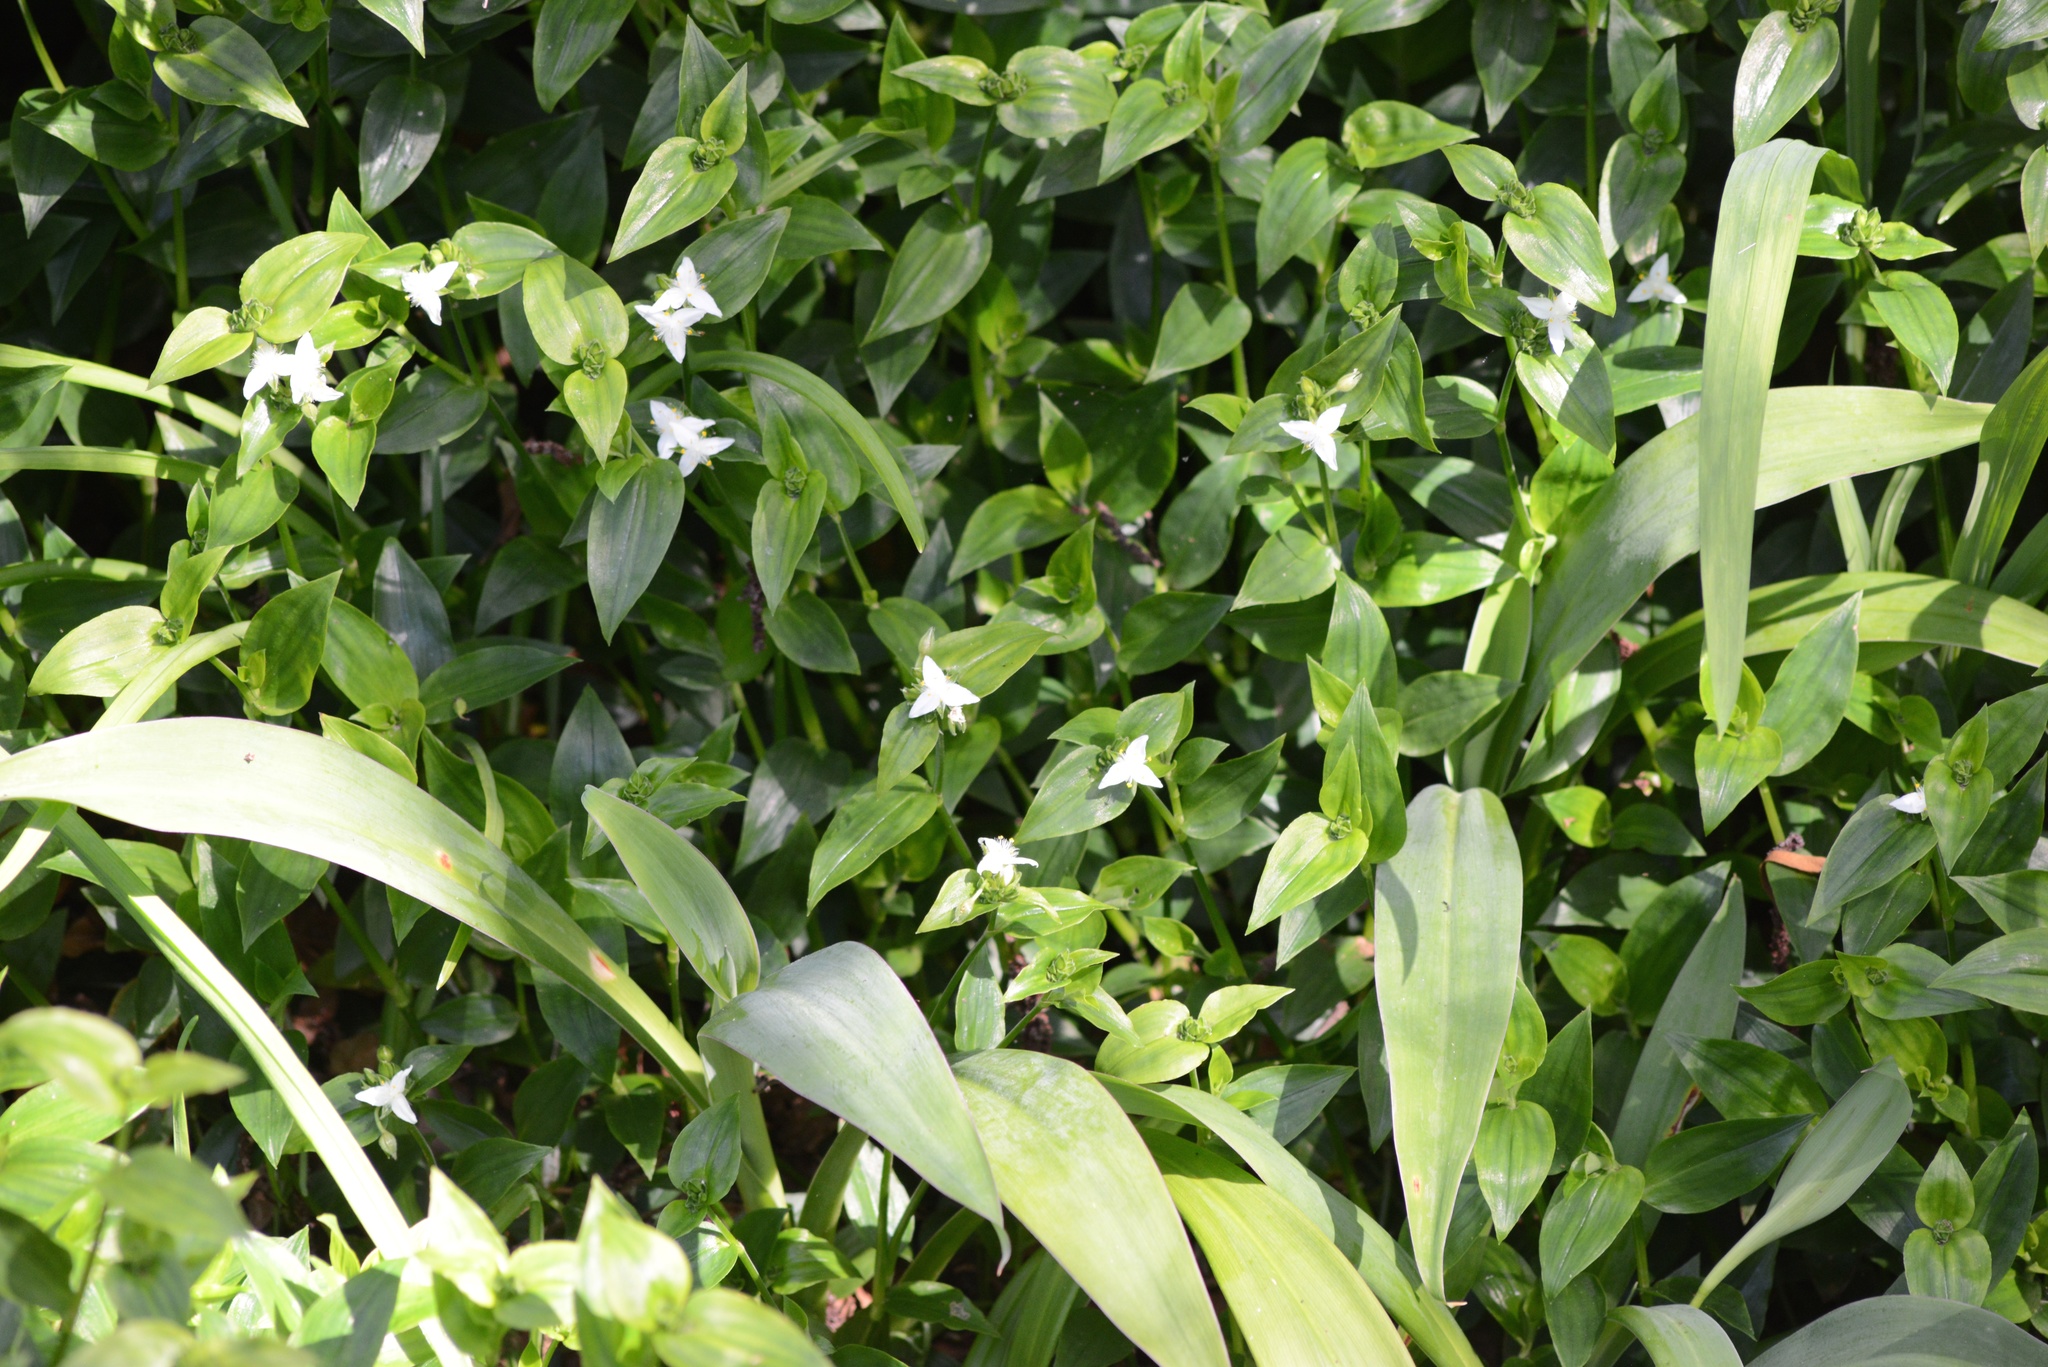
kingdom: Plantae
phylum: Tracheophyta
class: Liliopsida
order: Commelinales
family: Commelinaceae
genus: Tradescantia
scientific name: Tradescantia fluminensis
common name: Wandering-jew
